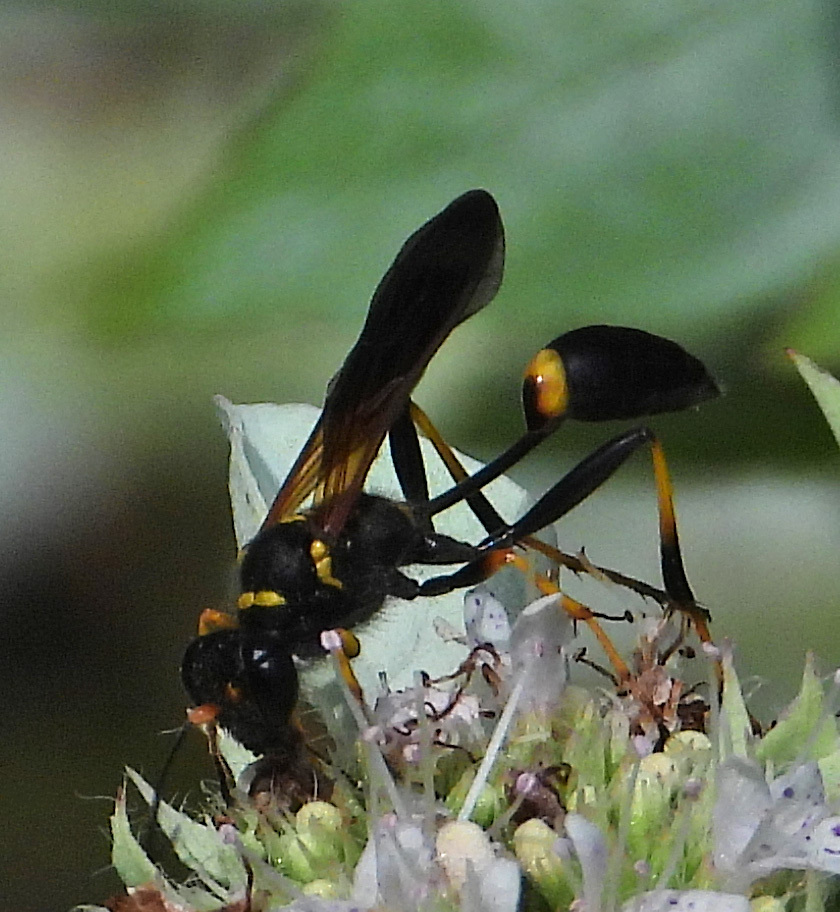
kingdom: Animalia
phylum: Arthropoda
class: Insecta
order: Hymenoptera
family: Sphecidae
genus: Sceliphron
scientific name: Sceliphron caementarium
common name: Mud dauber
